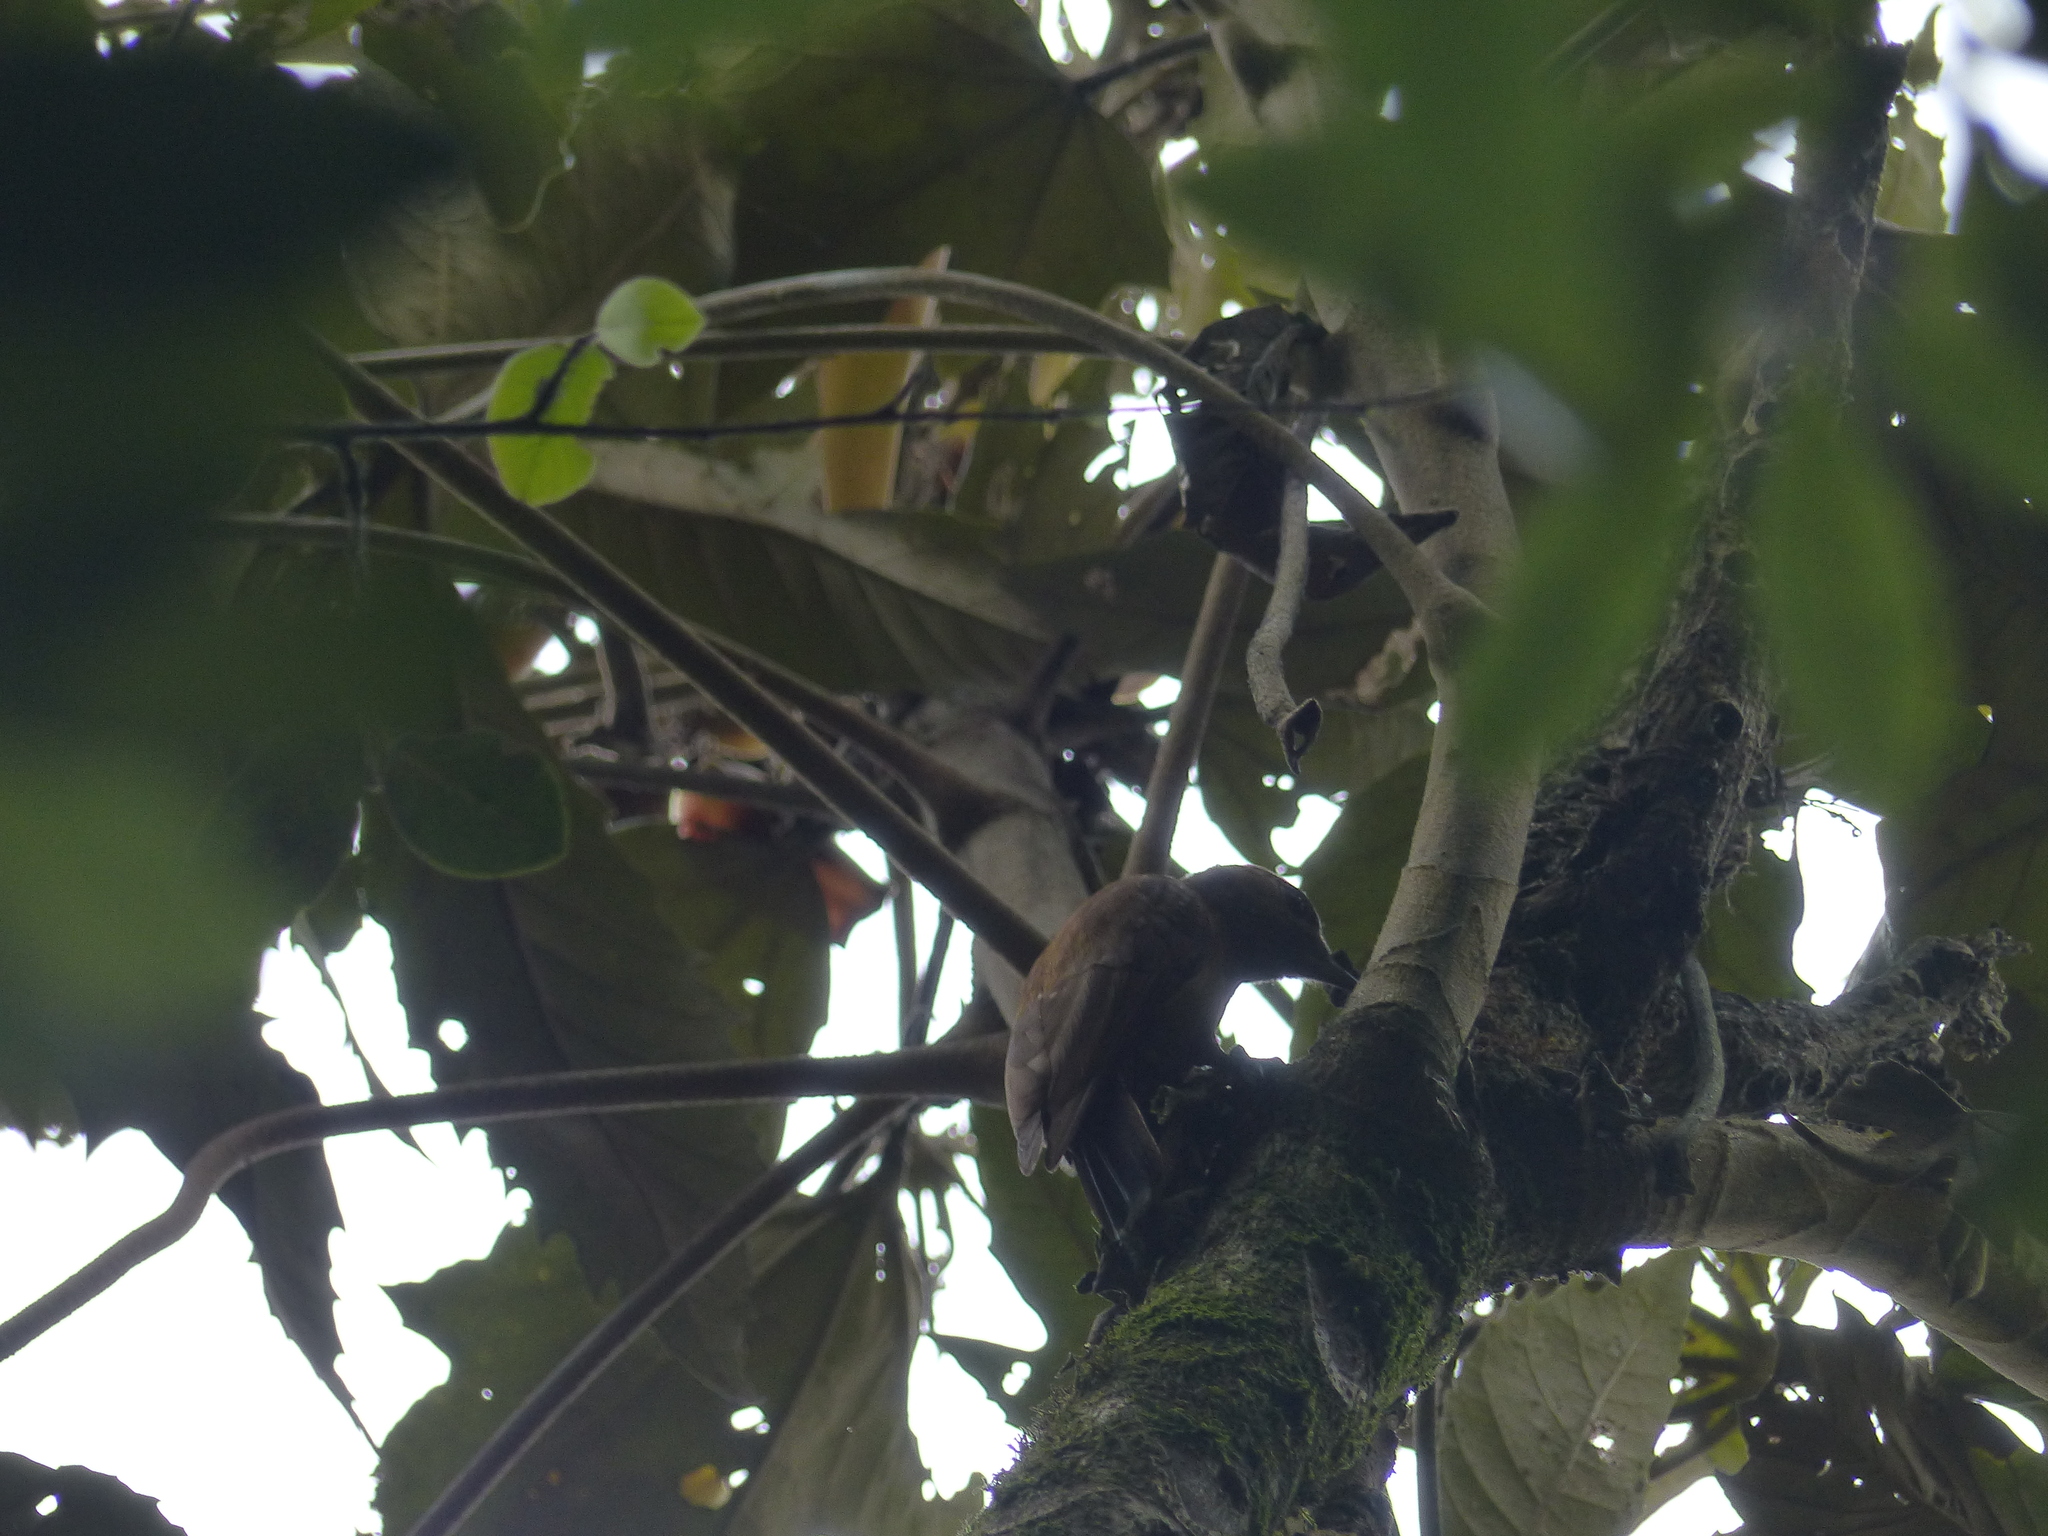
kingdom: Animalia
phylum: Chordata
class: Aves
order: Piciformes
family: Picidae
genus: Leuconotopicus
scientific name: Leuconotopicus fumigatus
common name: Smoky-brown woodpecker
